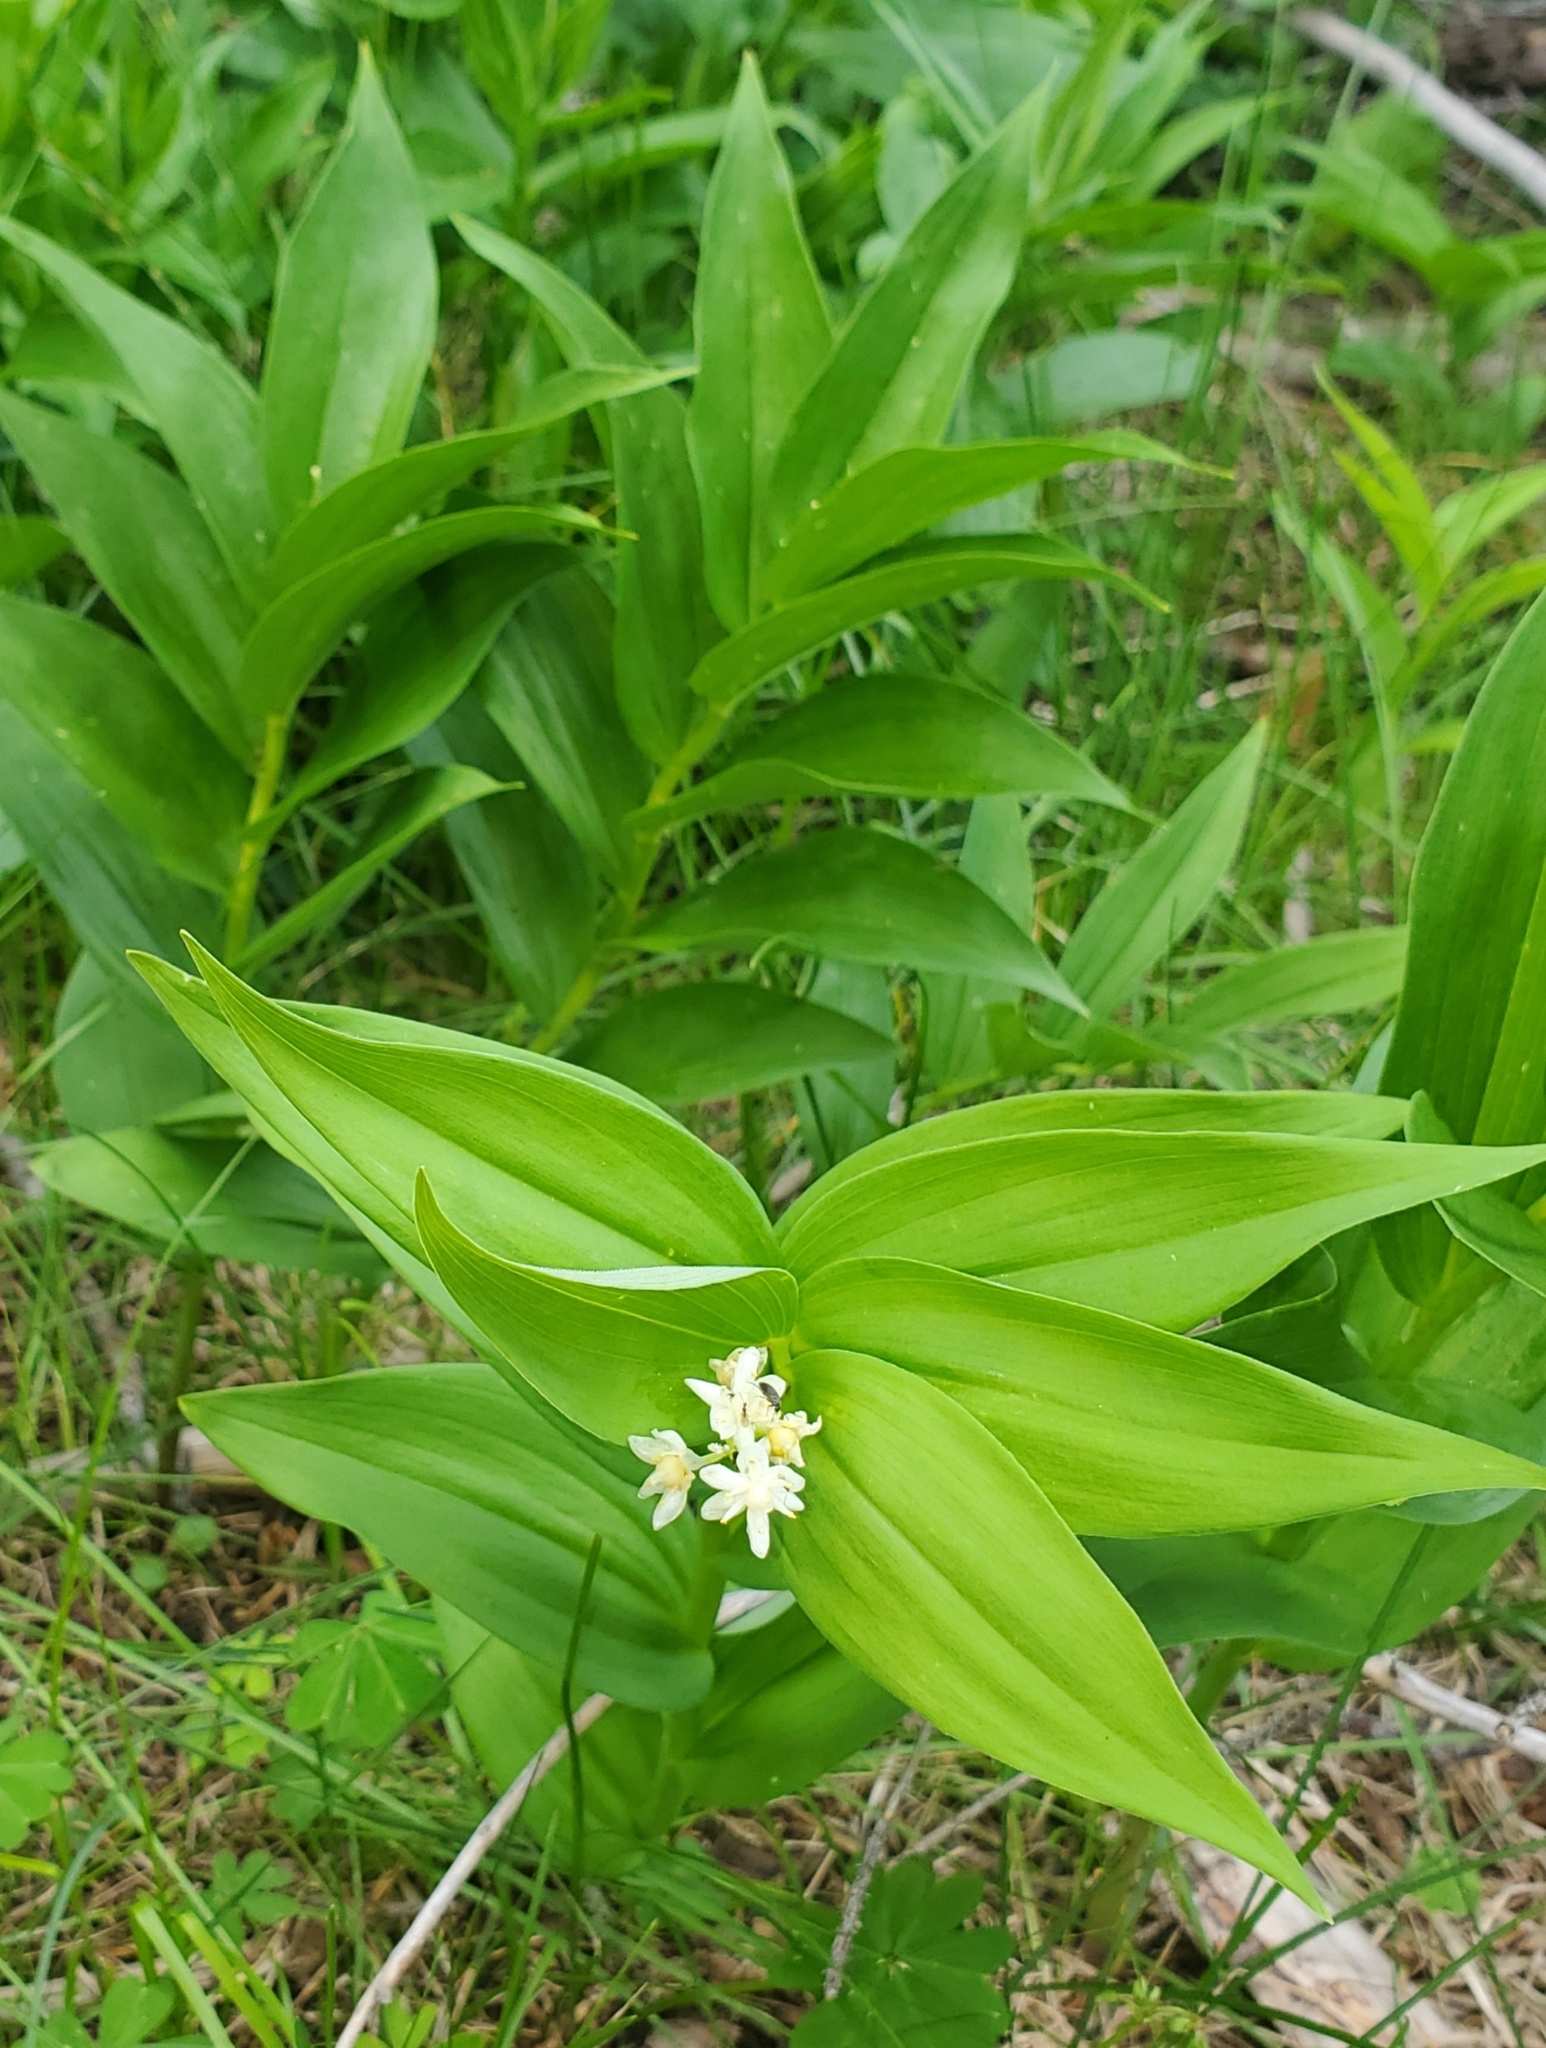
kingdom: Plantae
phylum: Tracheophyta
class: Liliopsida
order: Asparagales
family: Asparagaceae
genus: Maianthemum
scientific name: Maianthemum stellatum
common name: Little false solomon's seal
